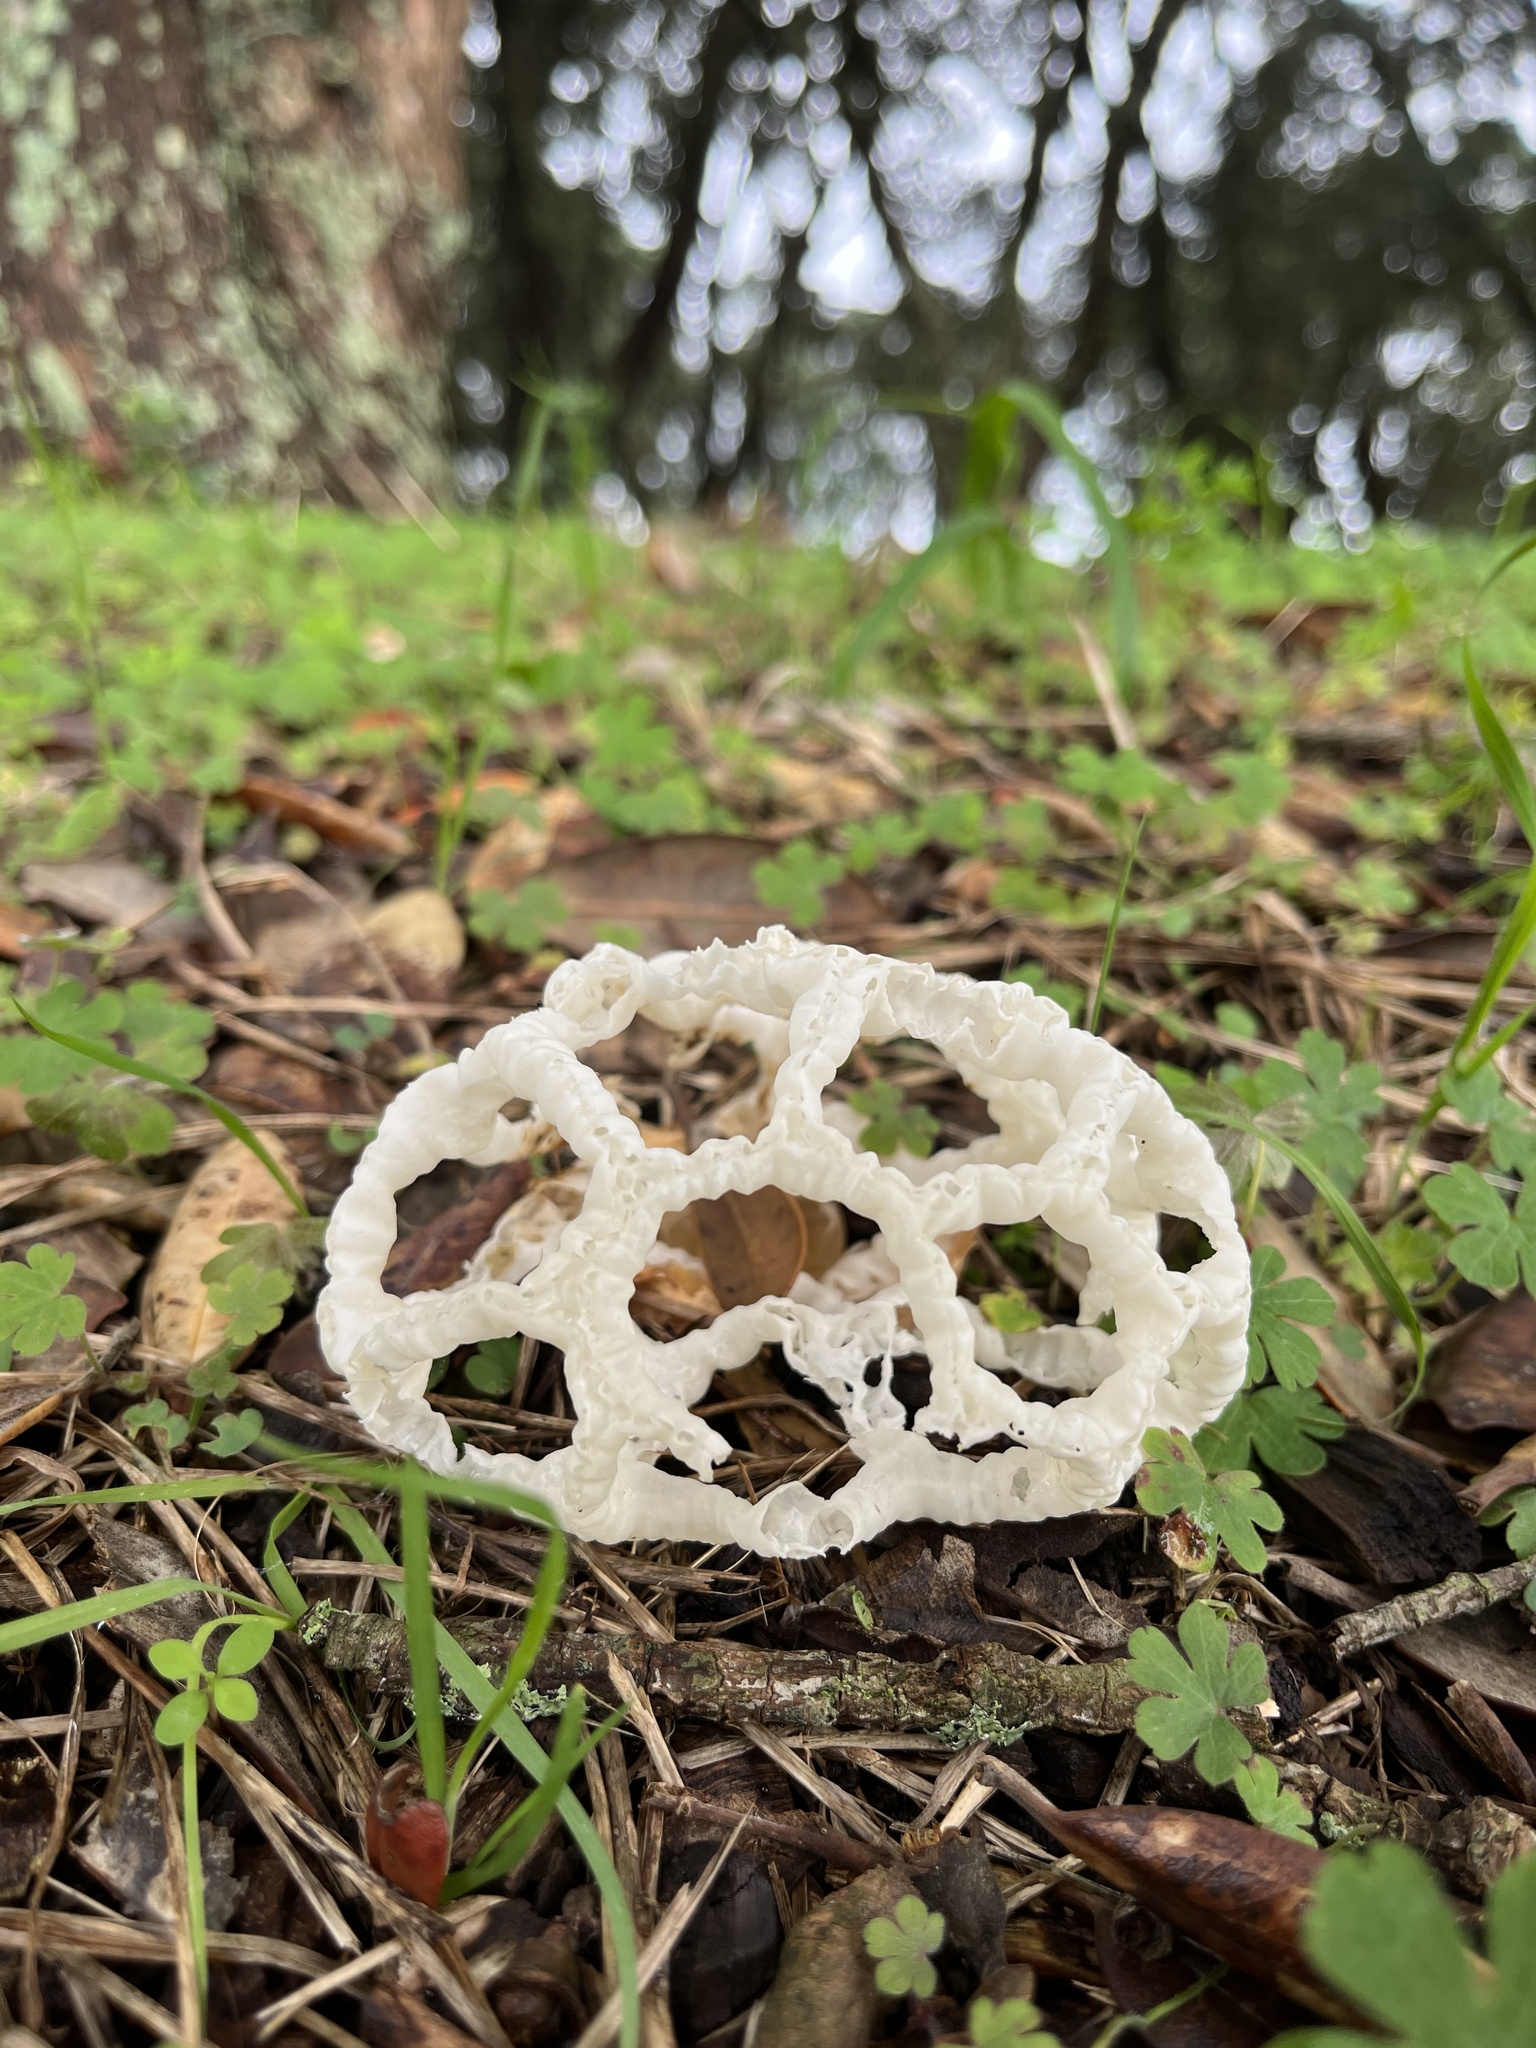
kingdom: Fungi
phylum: Basidiomycota
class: Agaricomycetes
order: Phallales
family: Phallaceae
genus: Ileodictyon
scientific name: Ileodictyon cibarium
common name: Basket fungus
